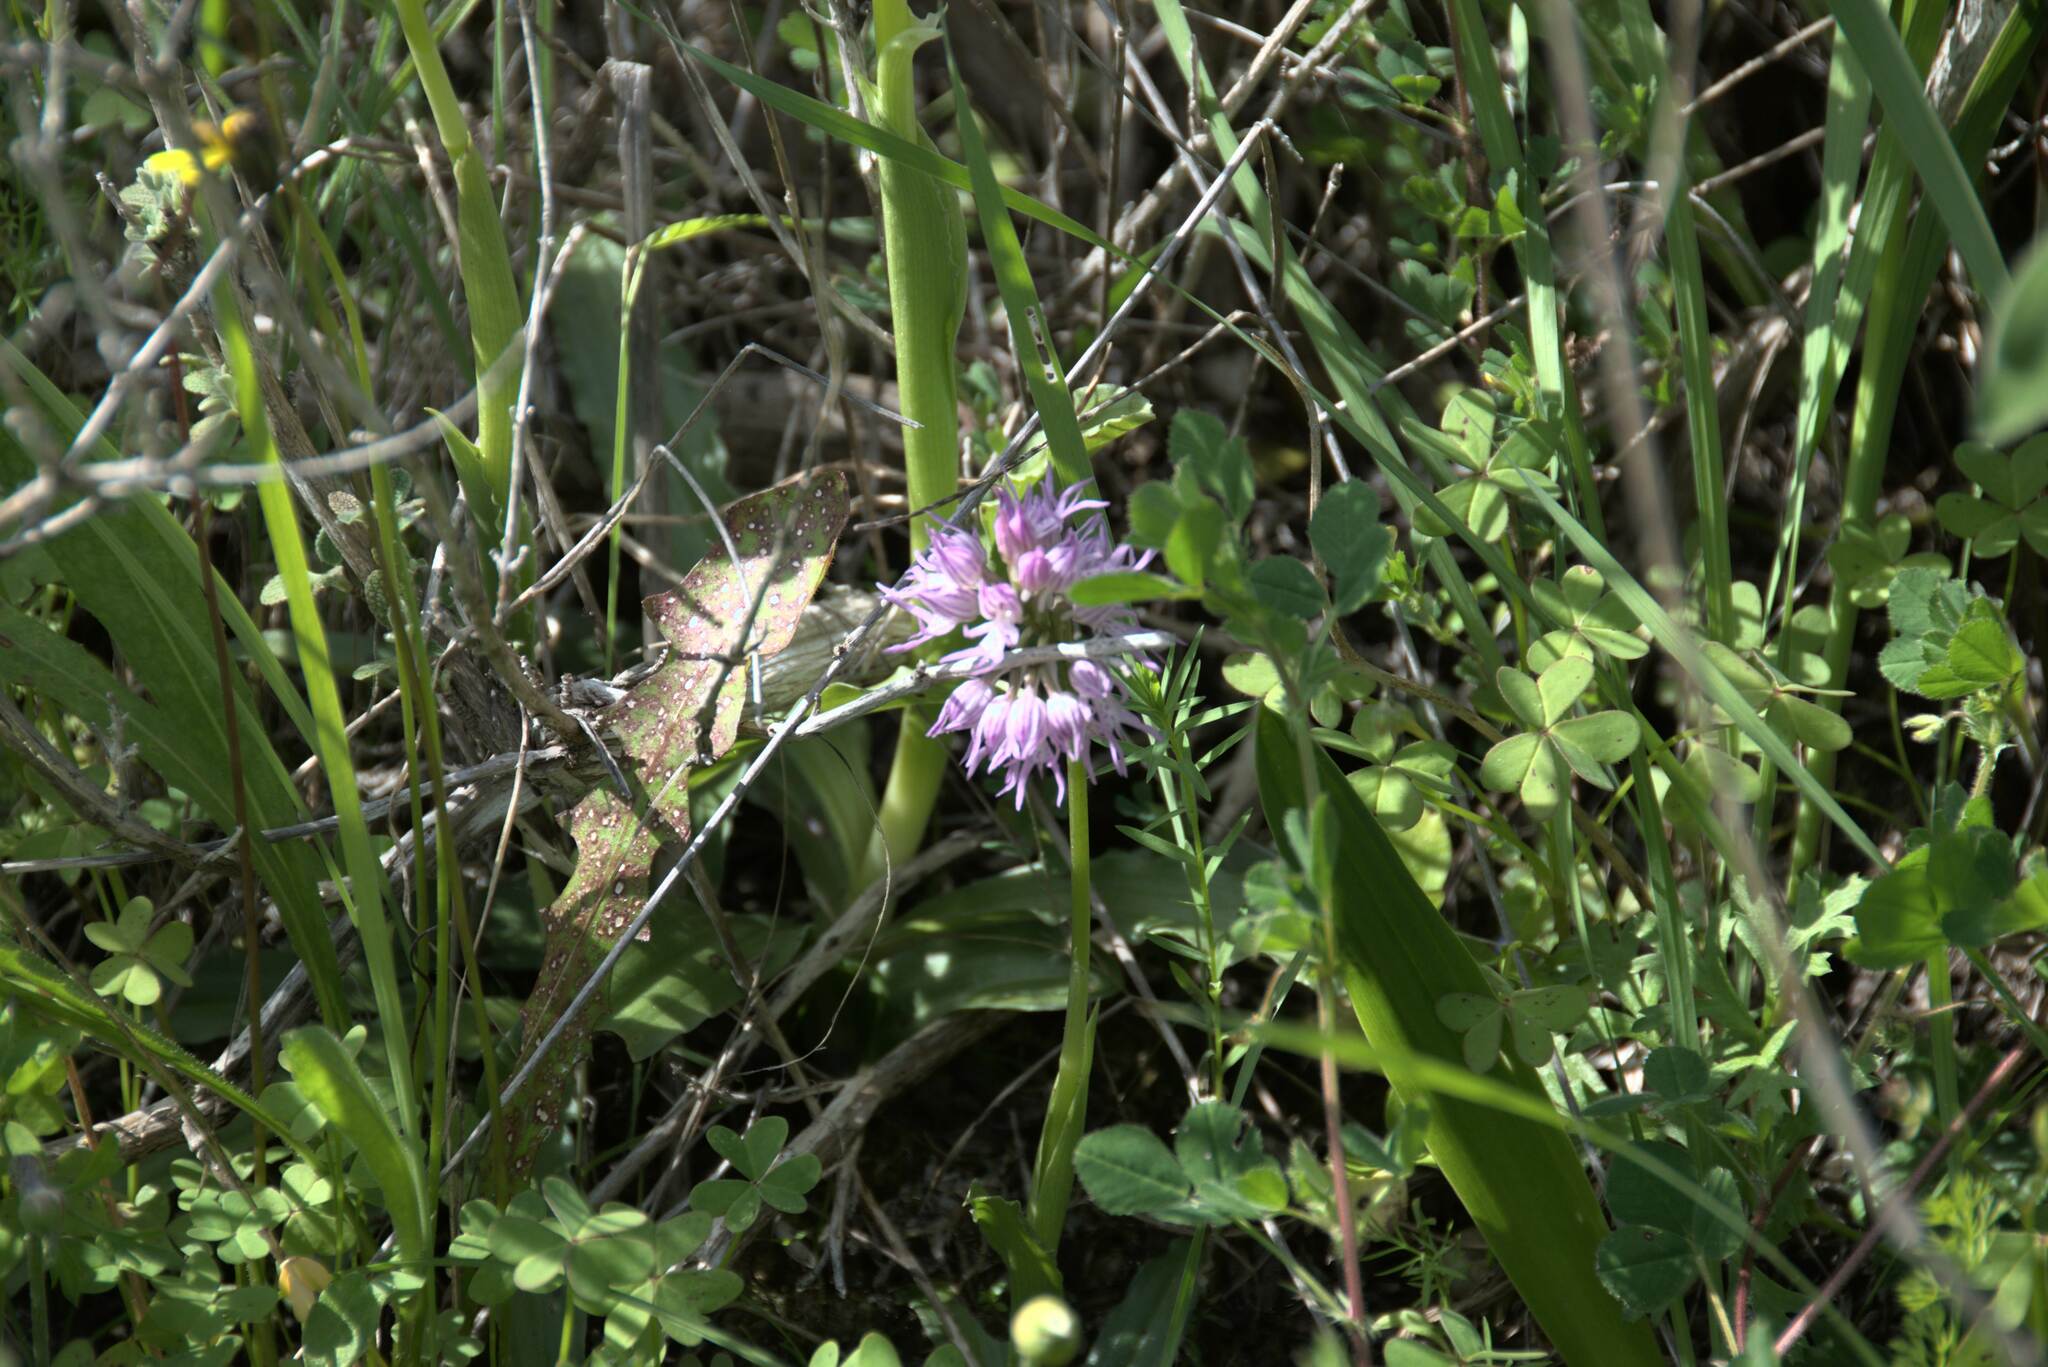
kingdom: Plantae
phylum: Tracheophyta
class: Liliopsida
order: Asparagales
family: Orchidaceae
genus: Orchis
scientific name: Orchis italica
